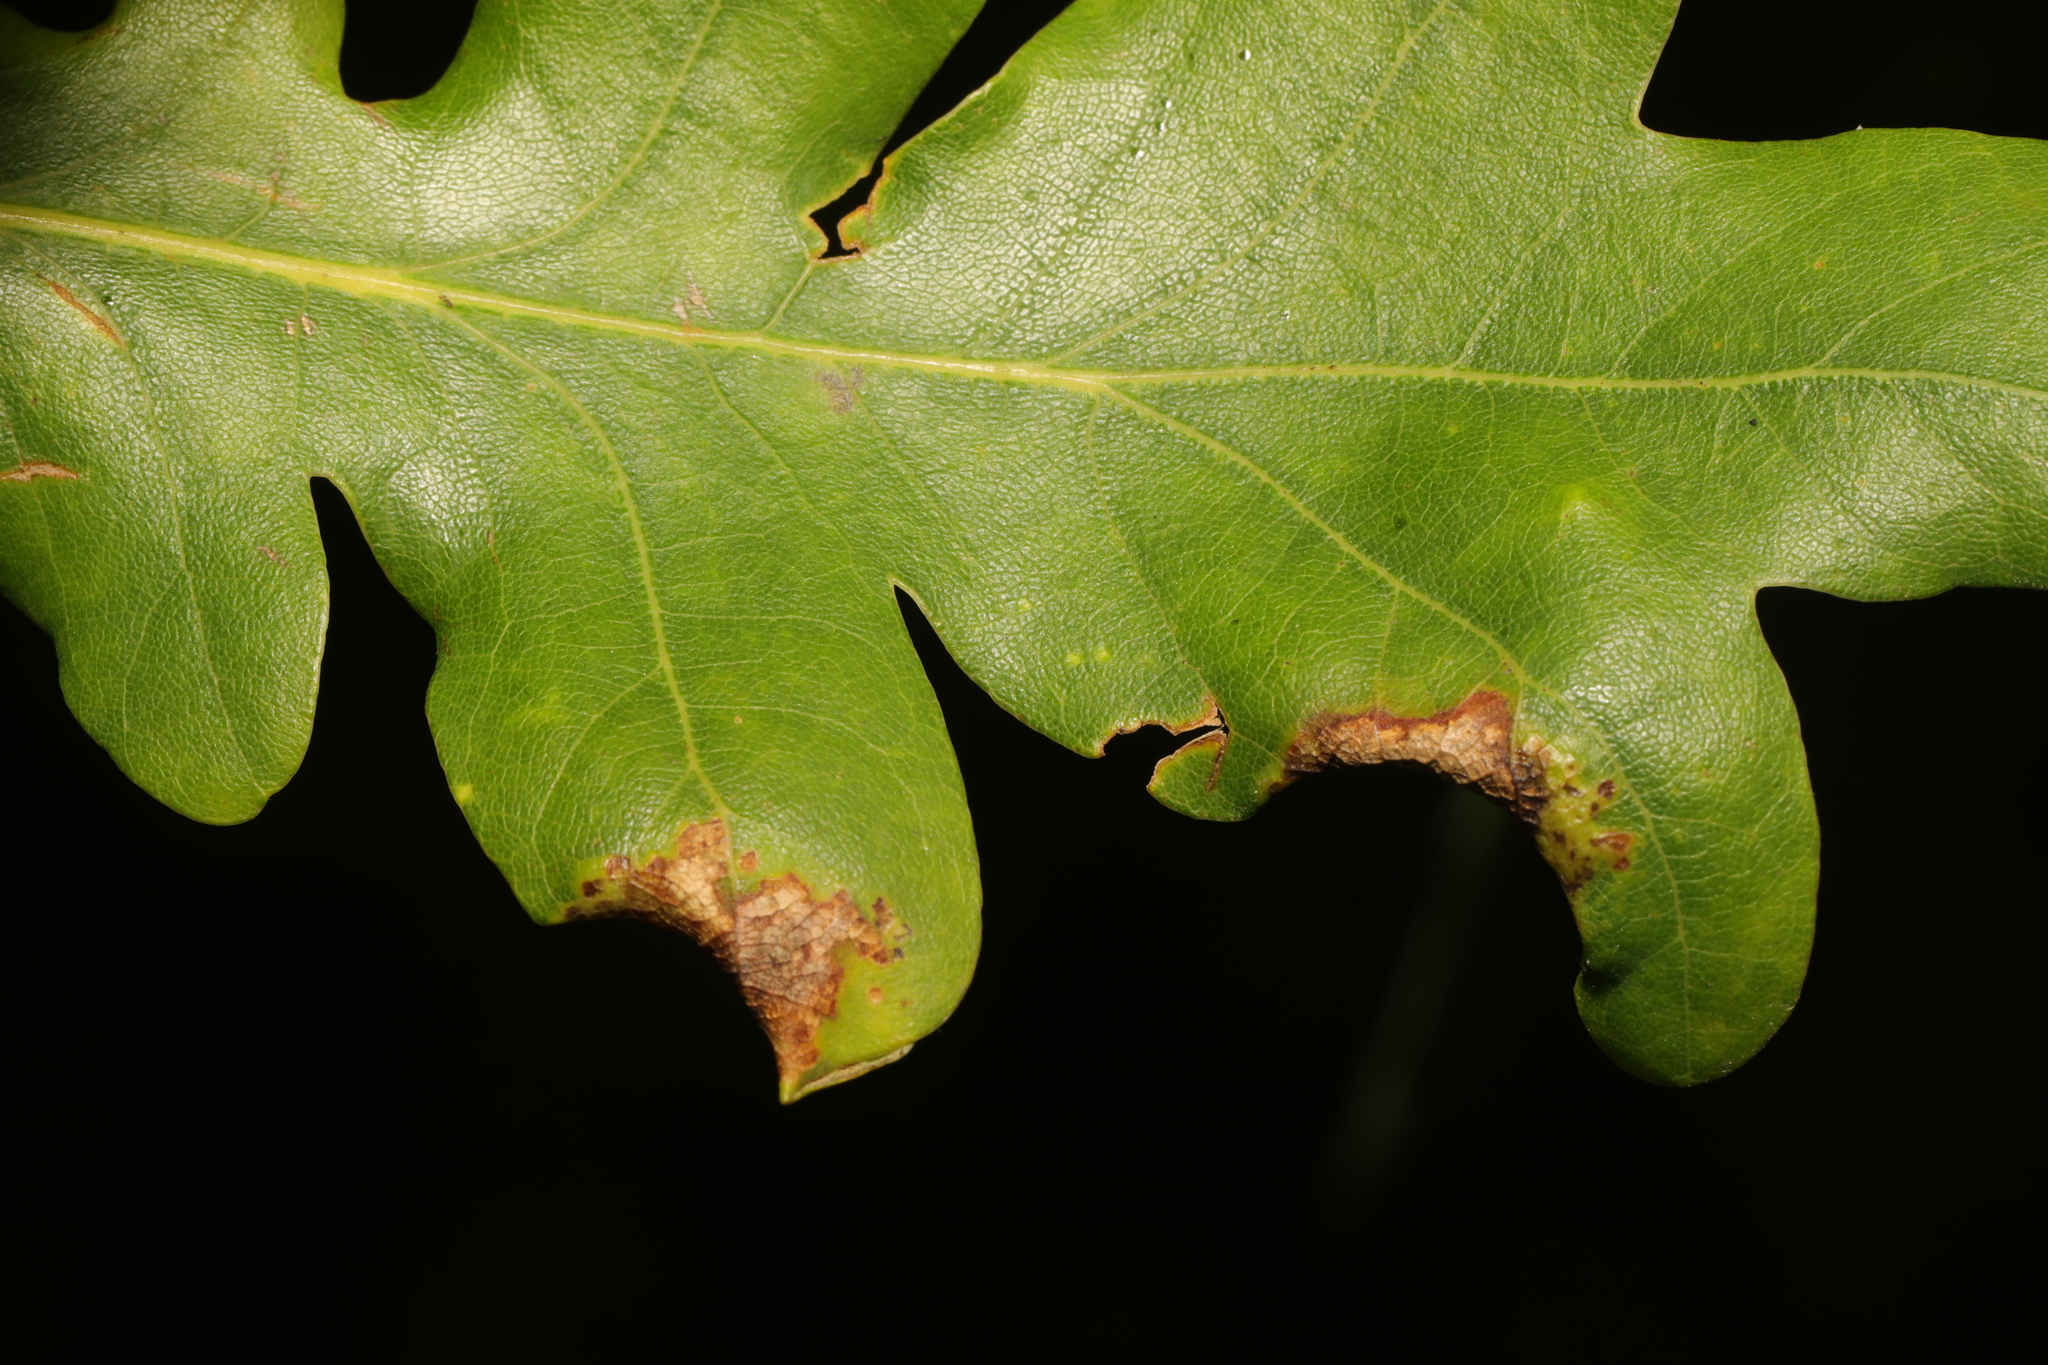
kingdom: Animalia
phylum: Arthropoda
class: Insecta
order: Diptera
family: Cecidomyiidae
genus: Macrodiplosis
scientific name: Macrodiplosis pustularis
